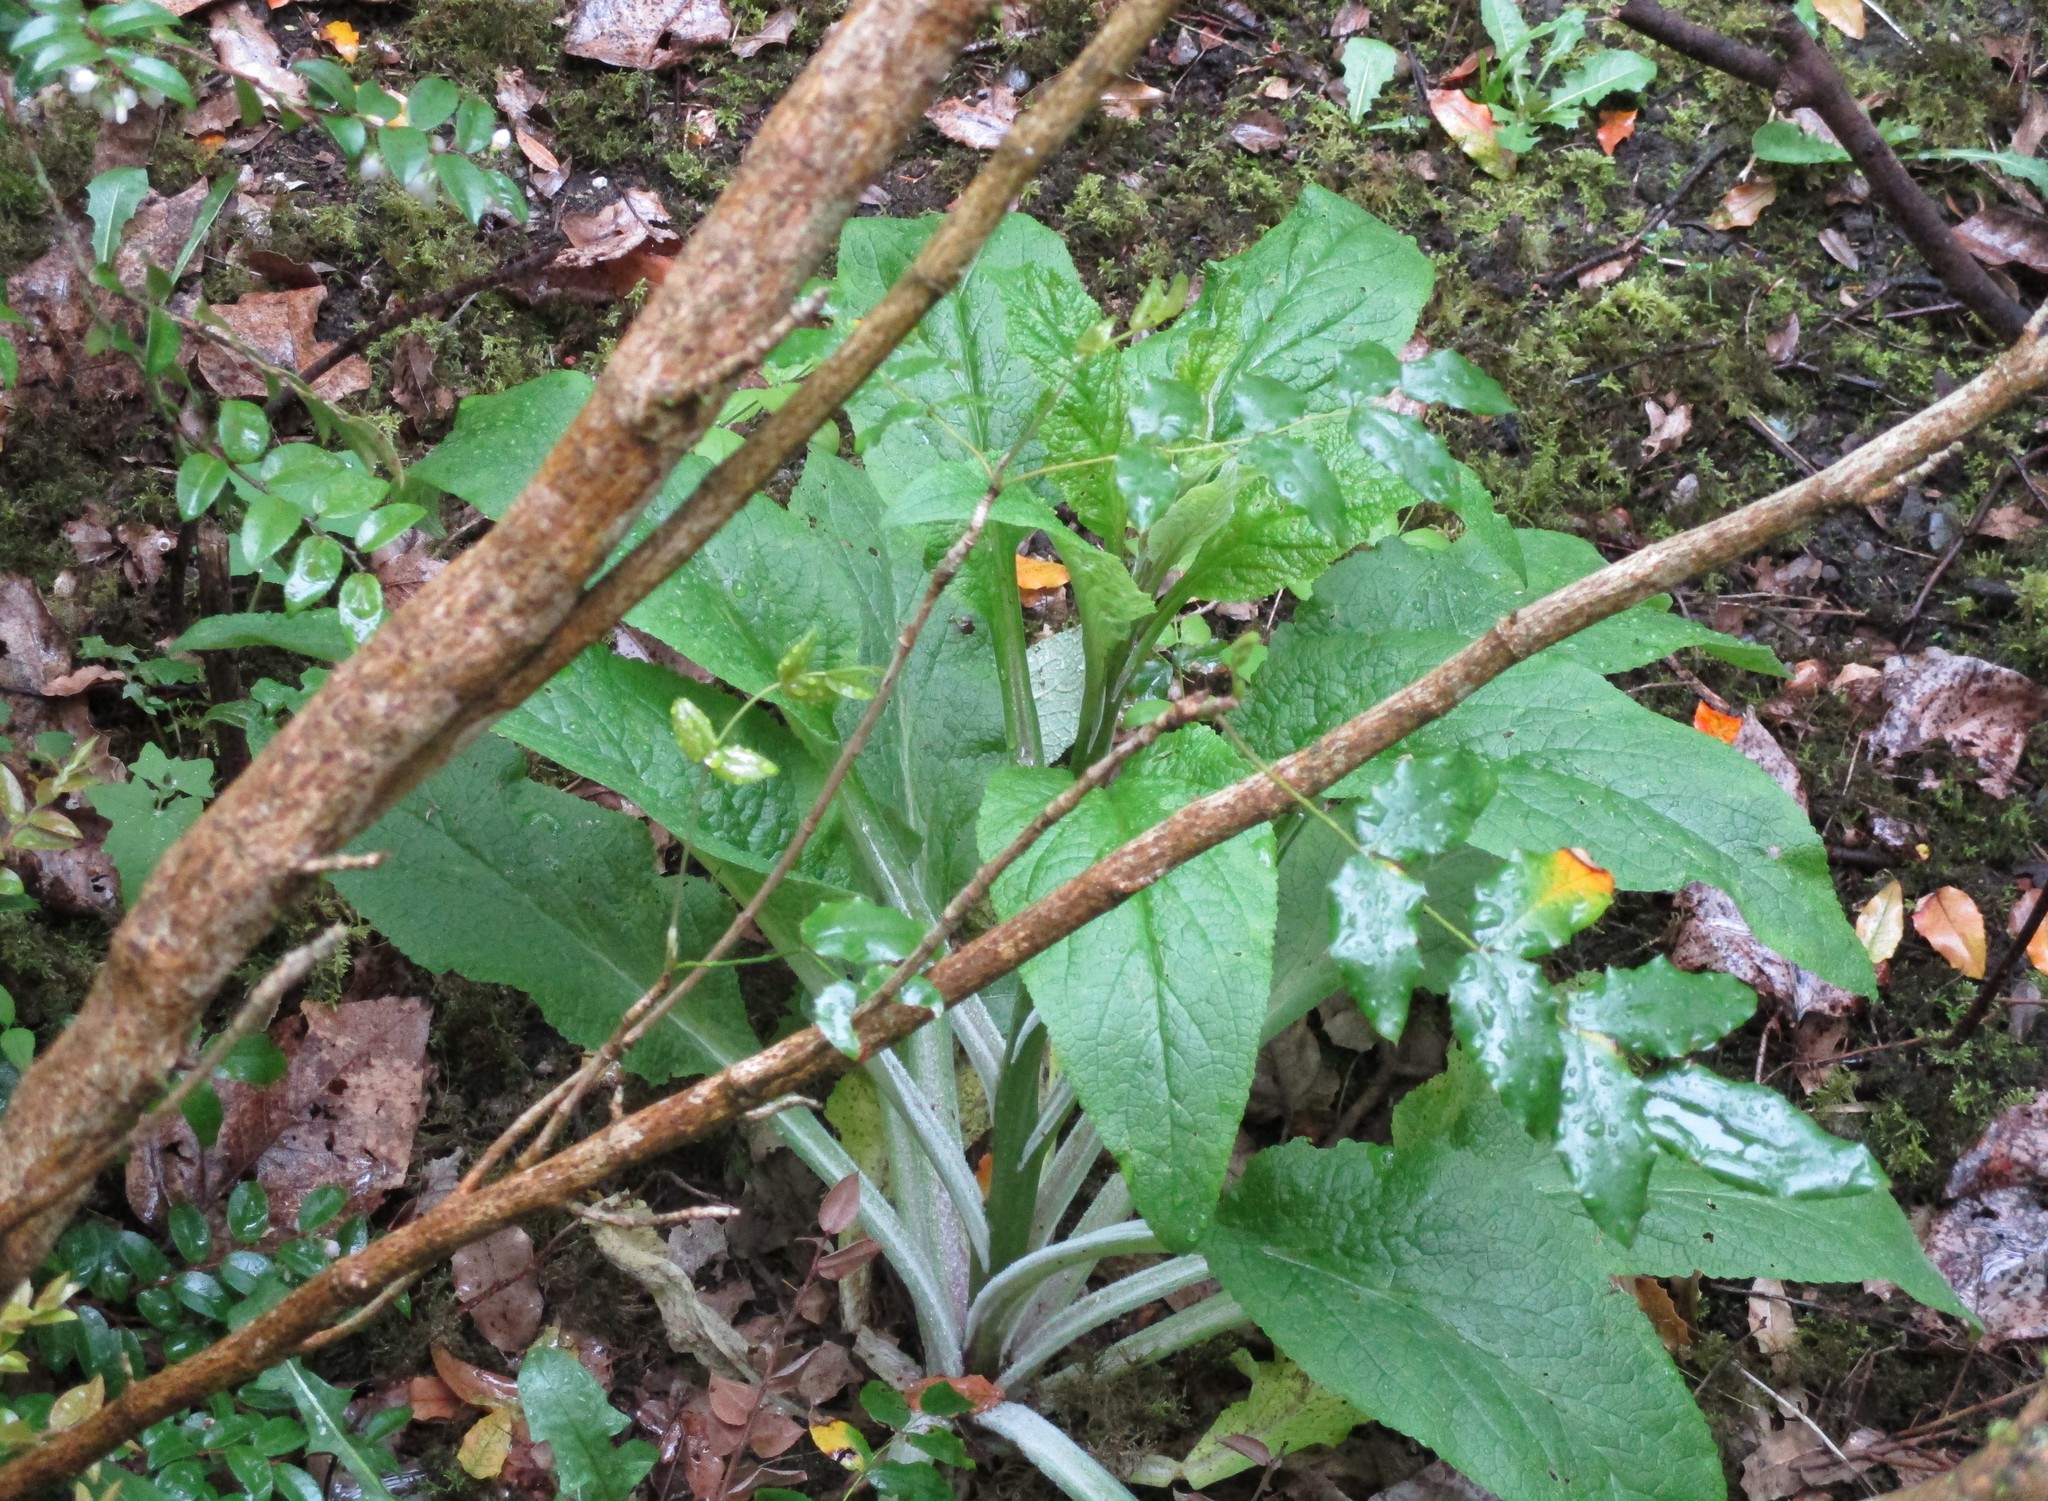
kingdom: Plantae
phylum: Tracheophyta
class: Magnoliopsida
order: Lamiales
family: Plantaginaceae
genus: Digitalis
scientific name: Digitalis purpurea
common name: Foxglove
